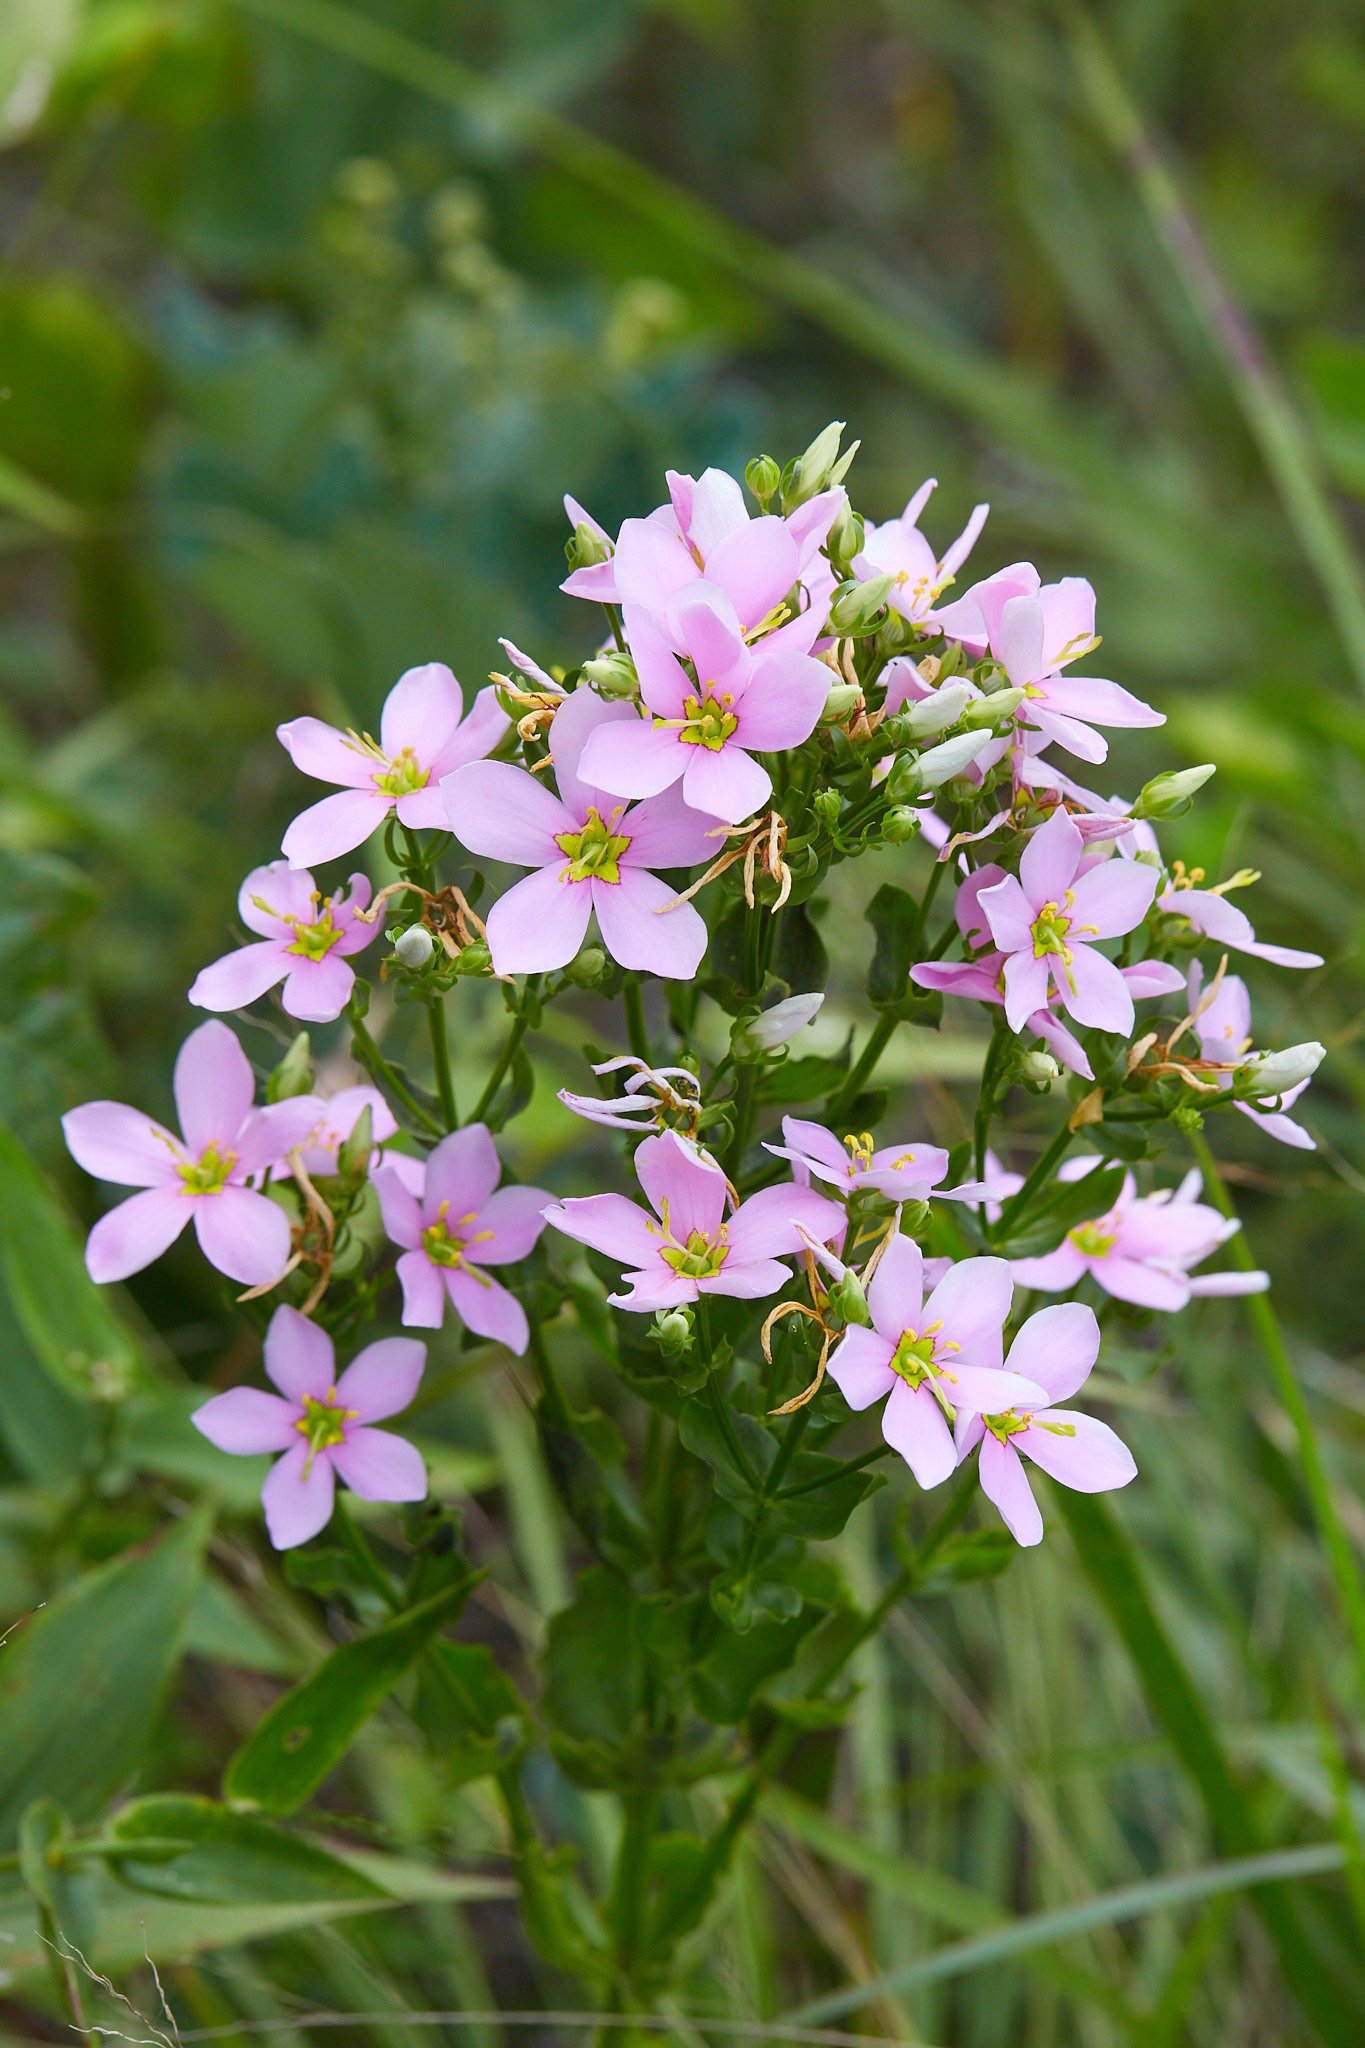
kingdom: Plantae
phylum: Tracheophyta
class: Magnoliopsida
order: Gentianales
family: Gentianaceae
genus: Sabatia
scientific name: Sabatia angularis
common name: Rose-pink
